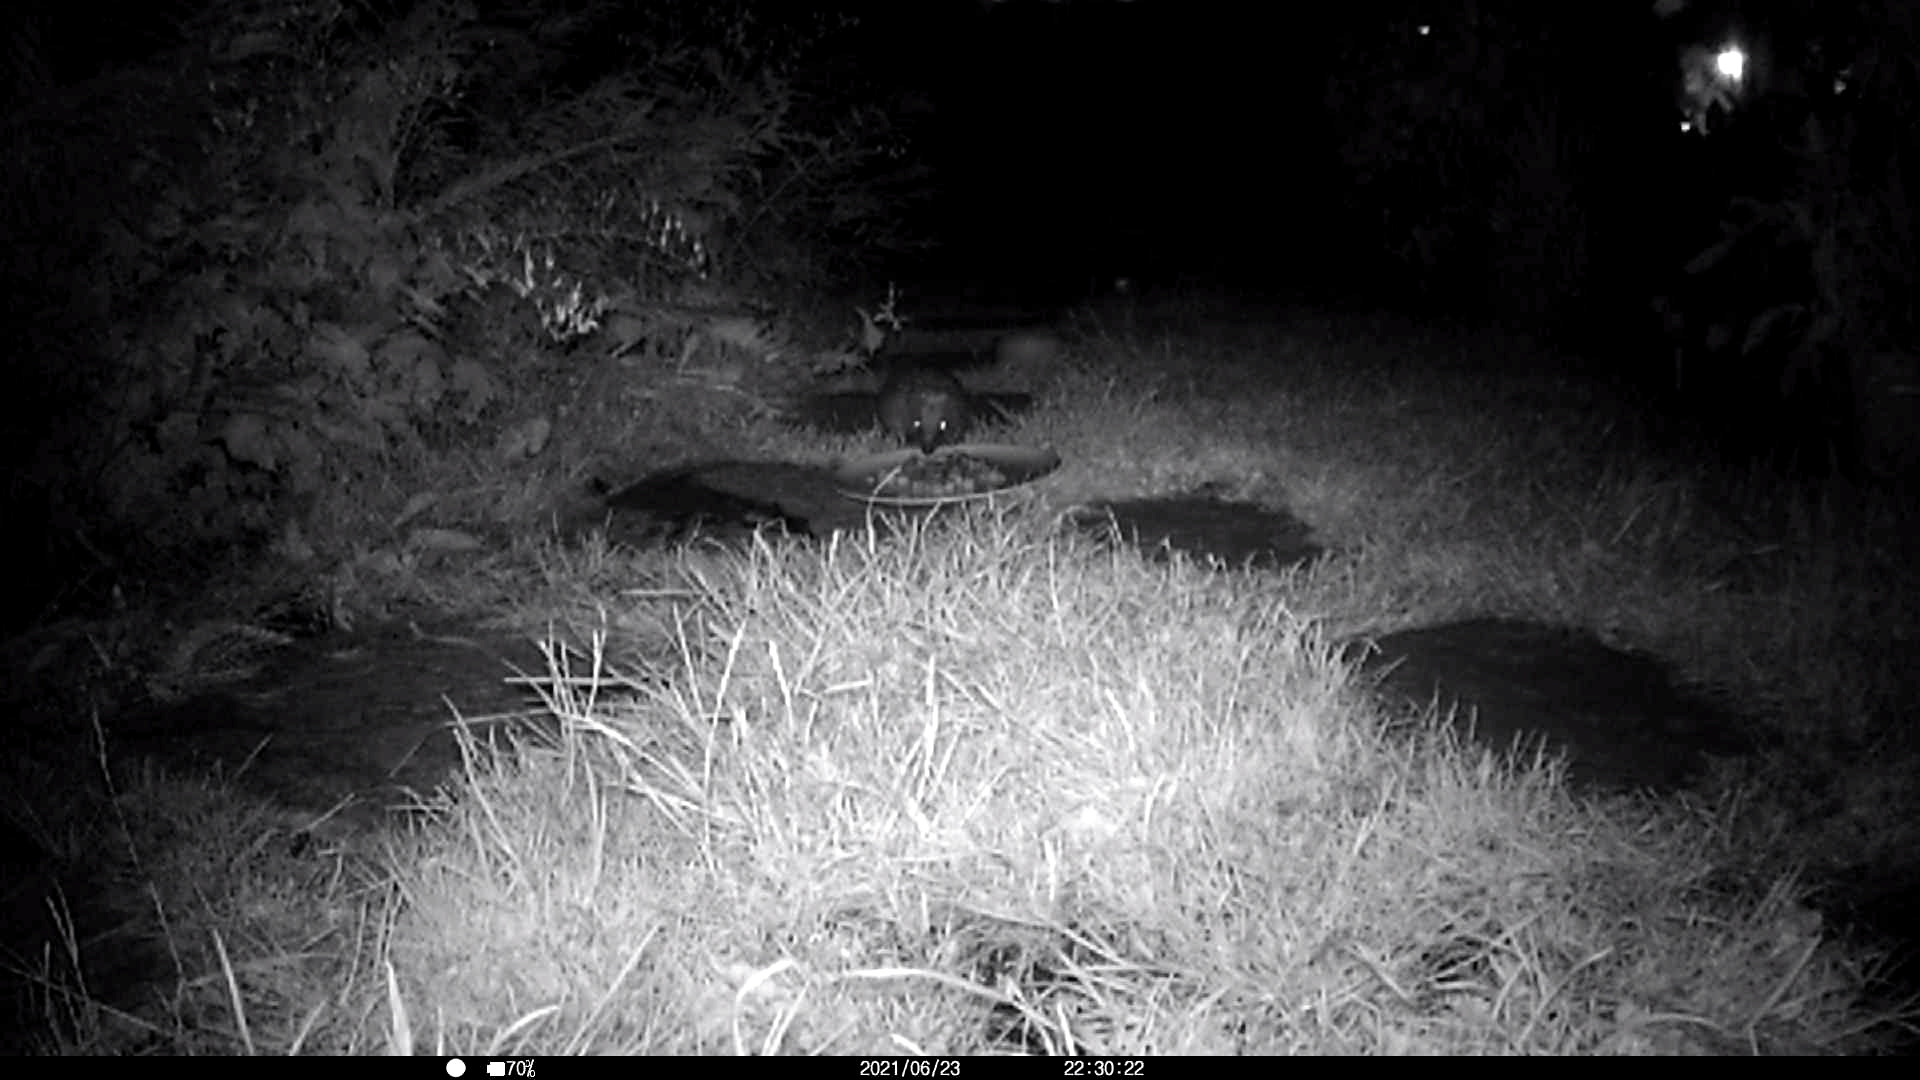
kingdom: Animalia
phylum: Chordata
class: Mammalia
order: Erinaceomorpha
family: Erinaceidae
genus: Erinaceus
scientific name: Erinaceus europaeus
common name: West european hedgehog
